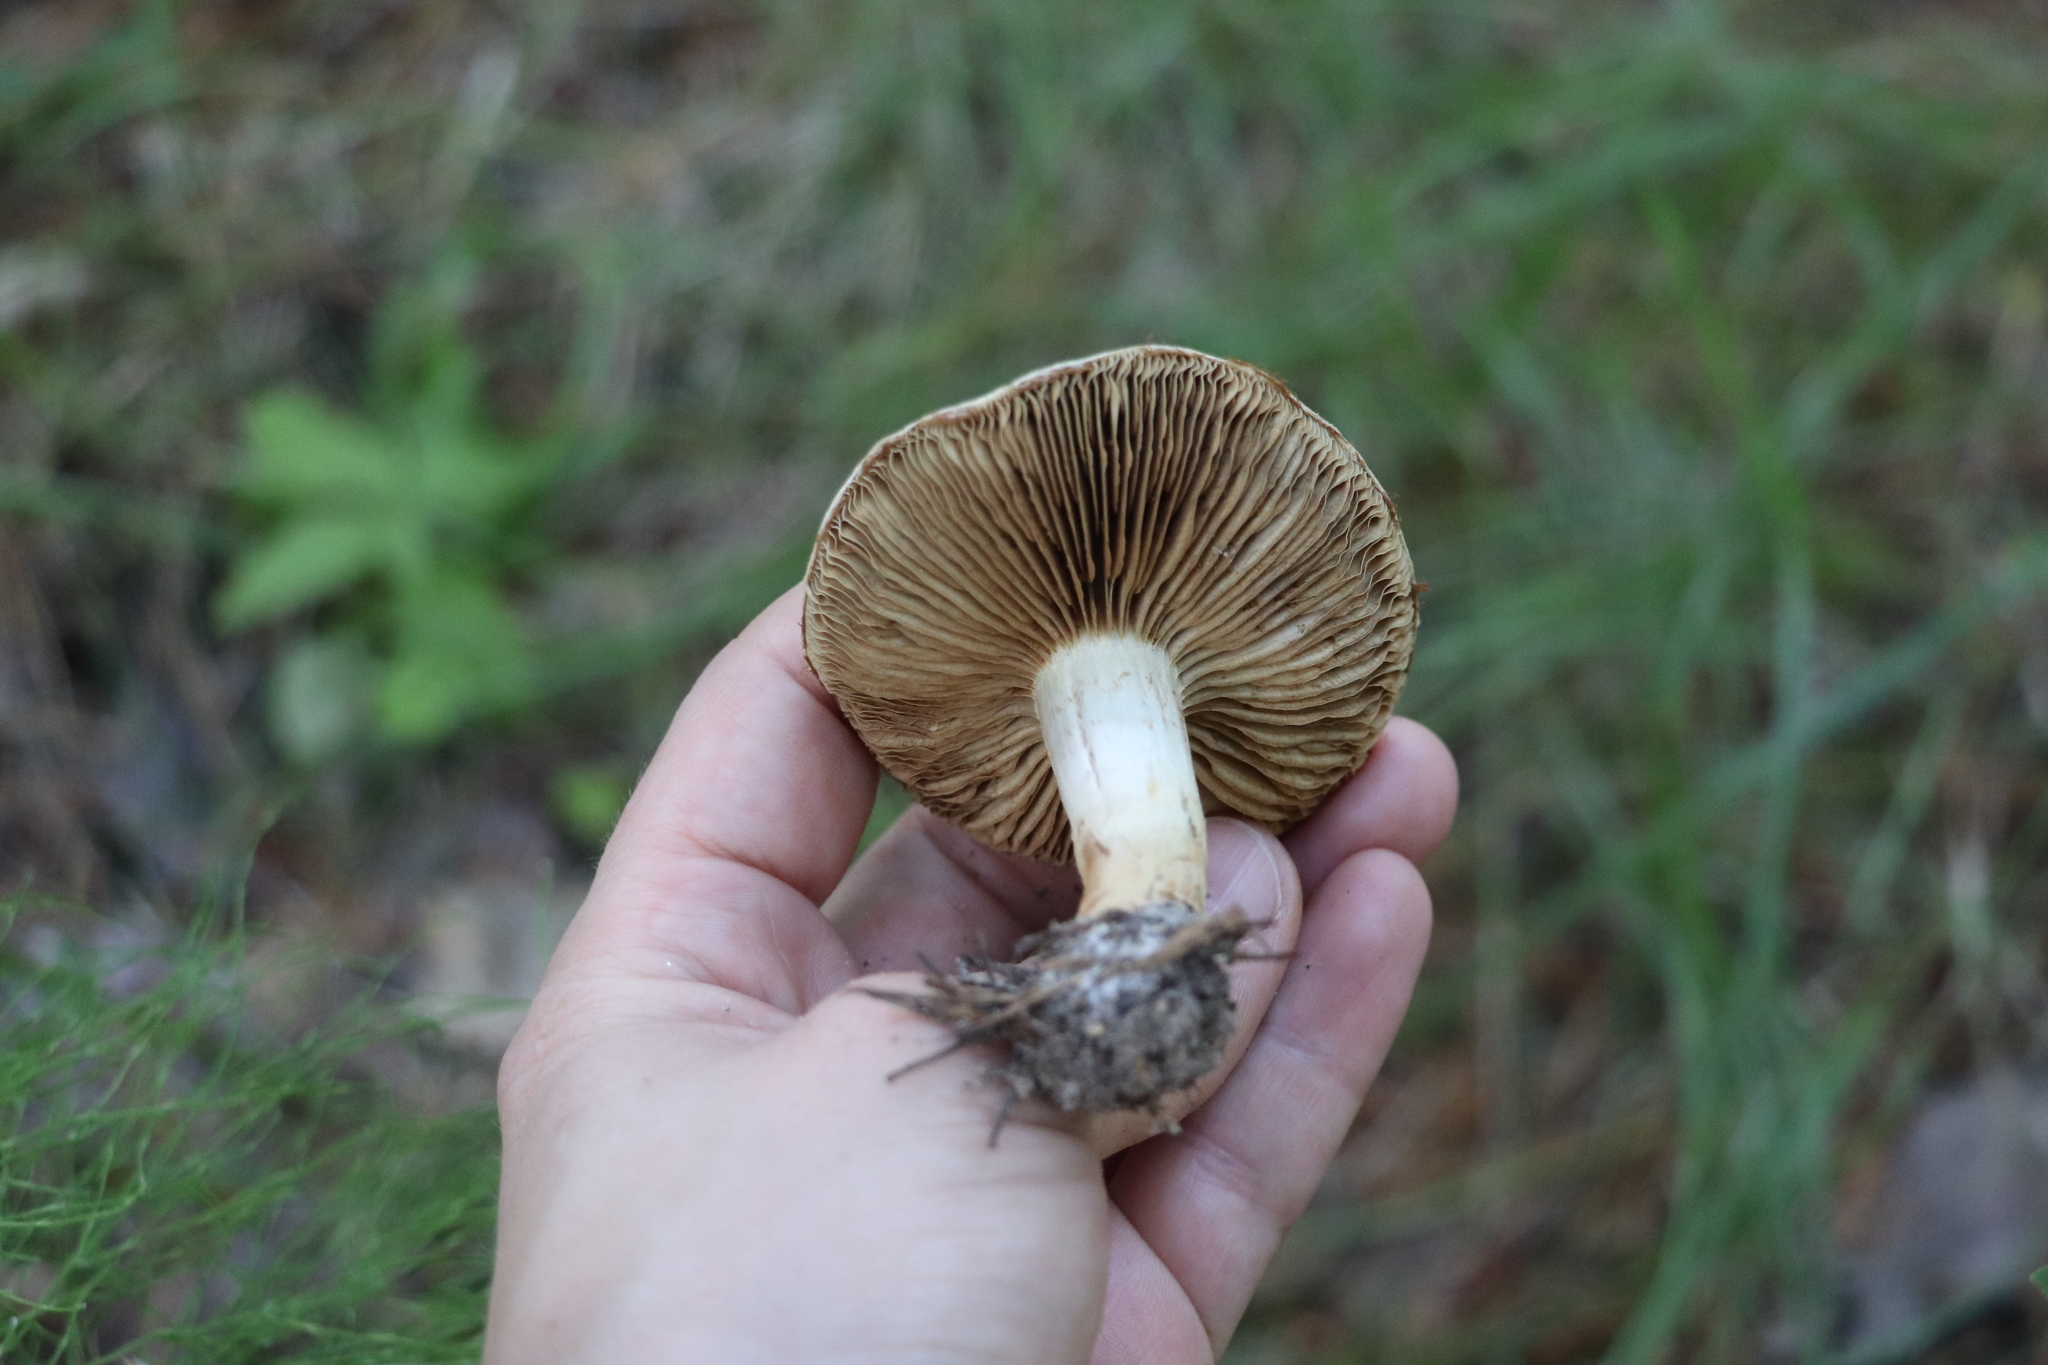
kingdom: Fungi
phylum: Basidiomycota
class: Agaricomycetes
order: Agaricales
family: Strophariaceae
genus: Pholiota
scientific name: Pholiota mixta
